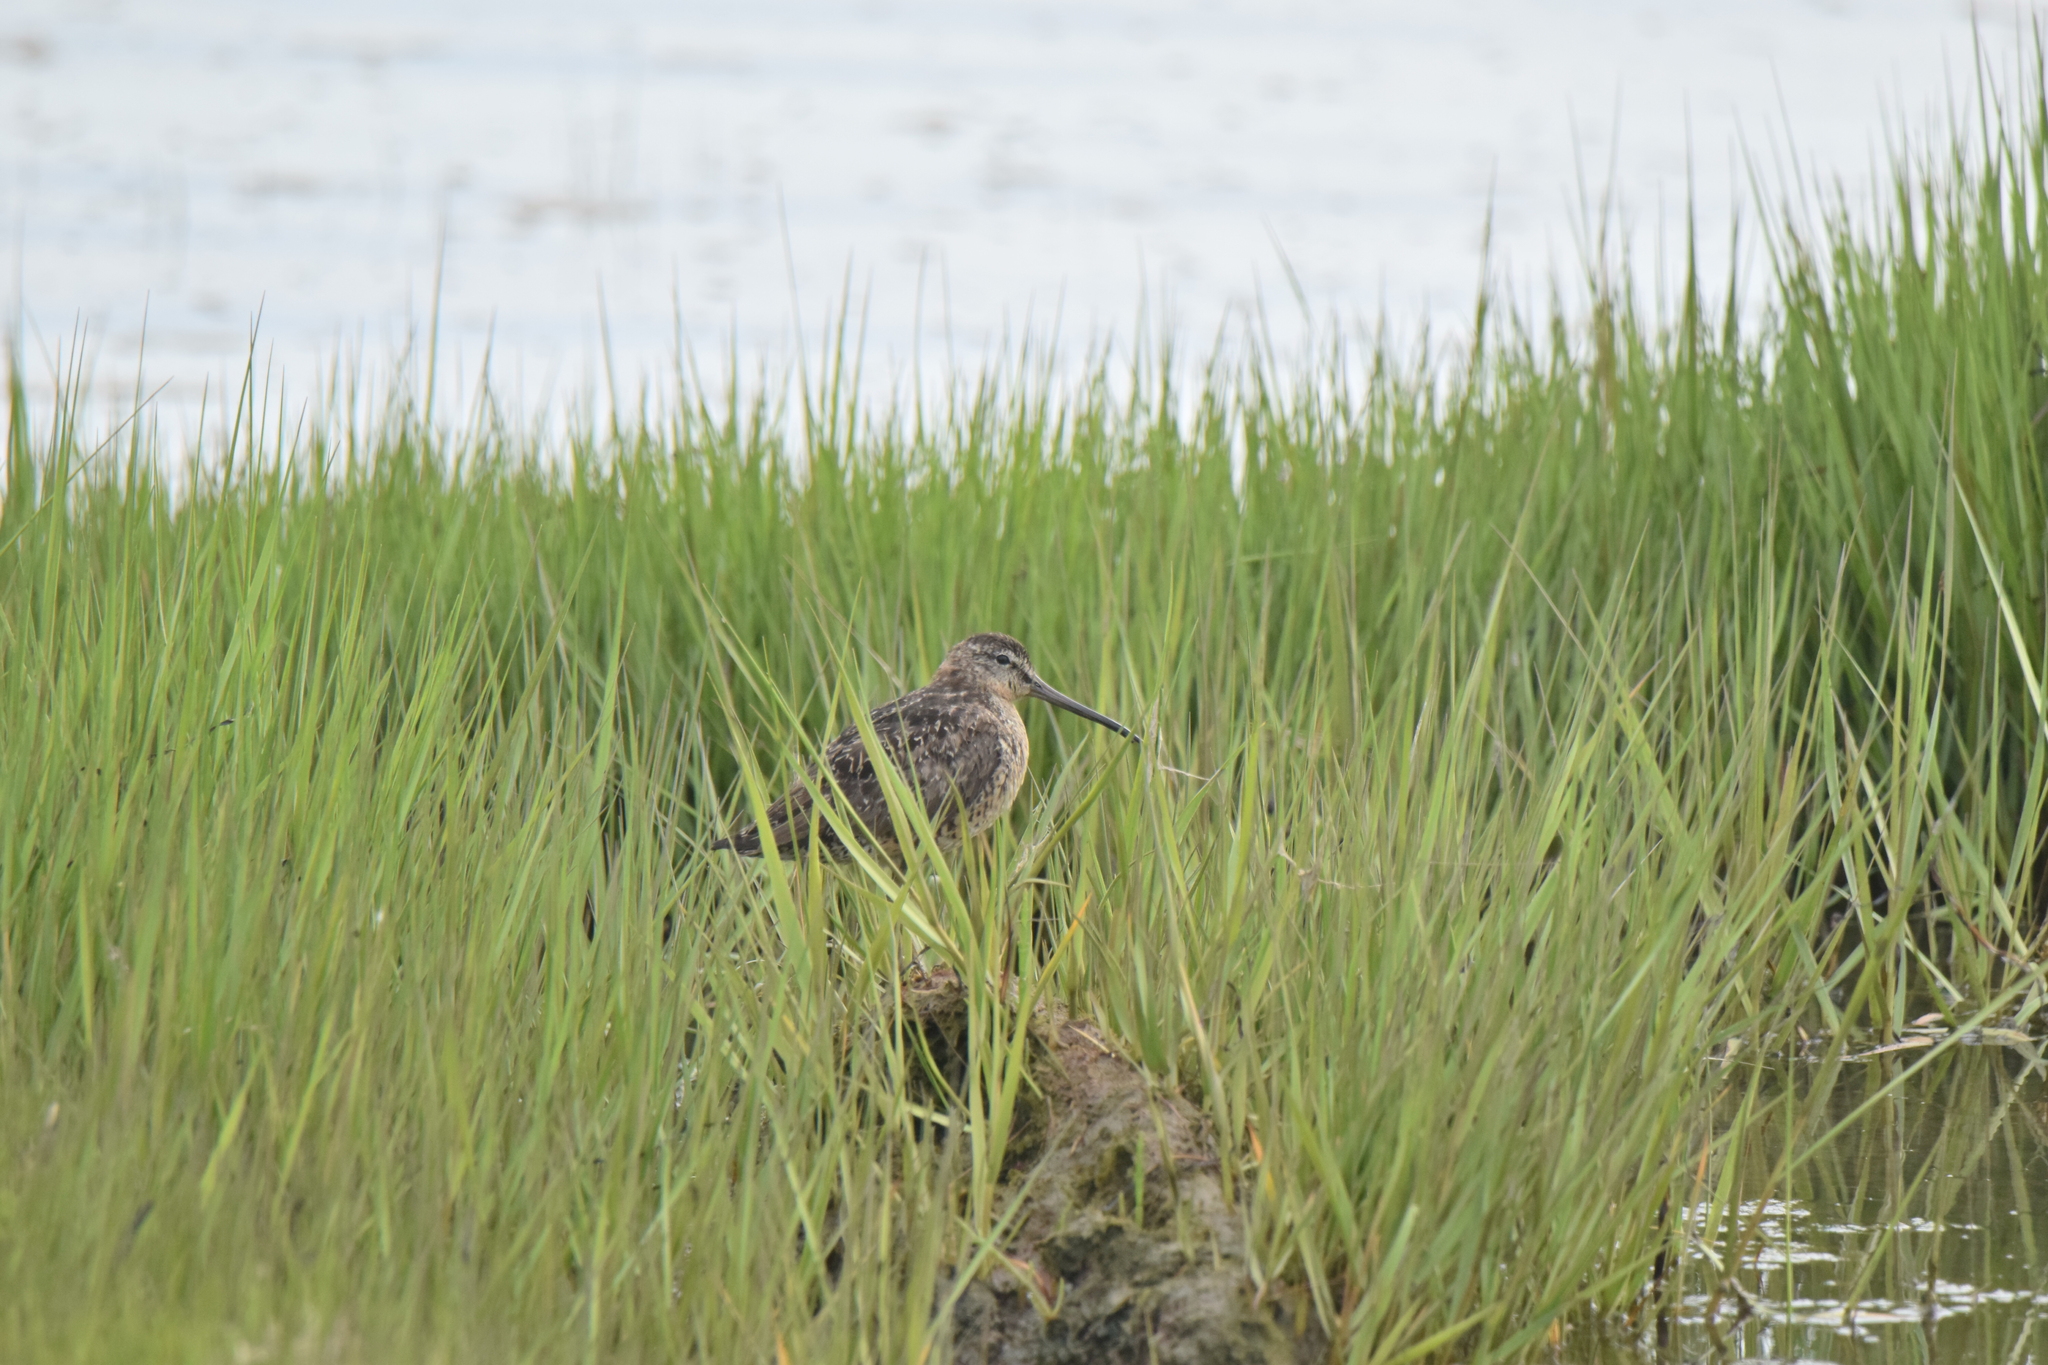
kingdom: Animalia
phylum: Chordata
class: Aves
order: Charadriiformes
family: Scolopacidae
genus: Limnodromus
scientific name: Limnodromus griseus
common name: Short-billed dowitcher
